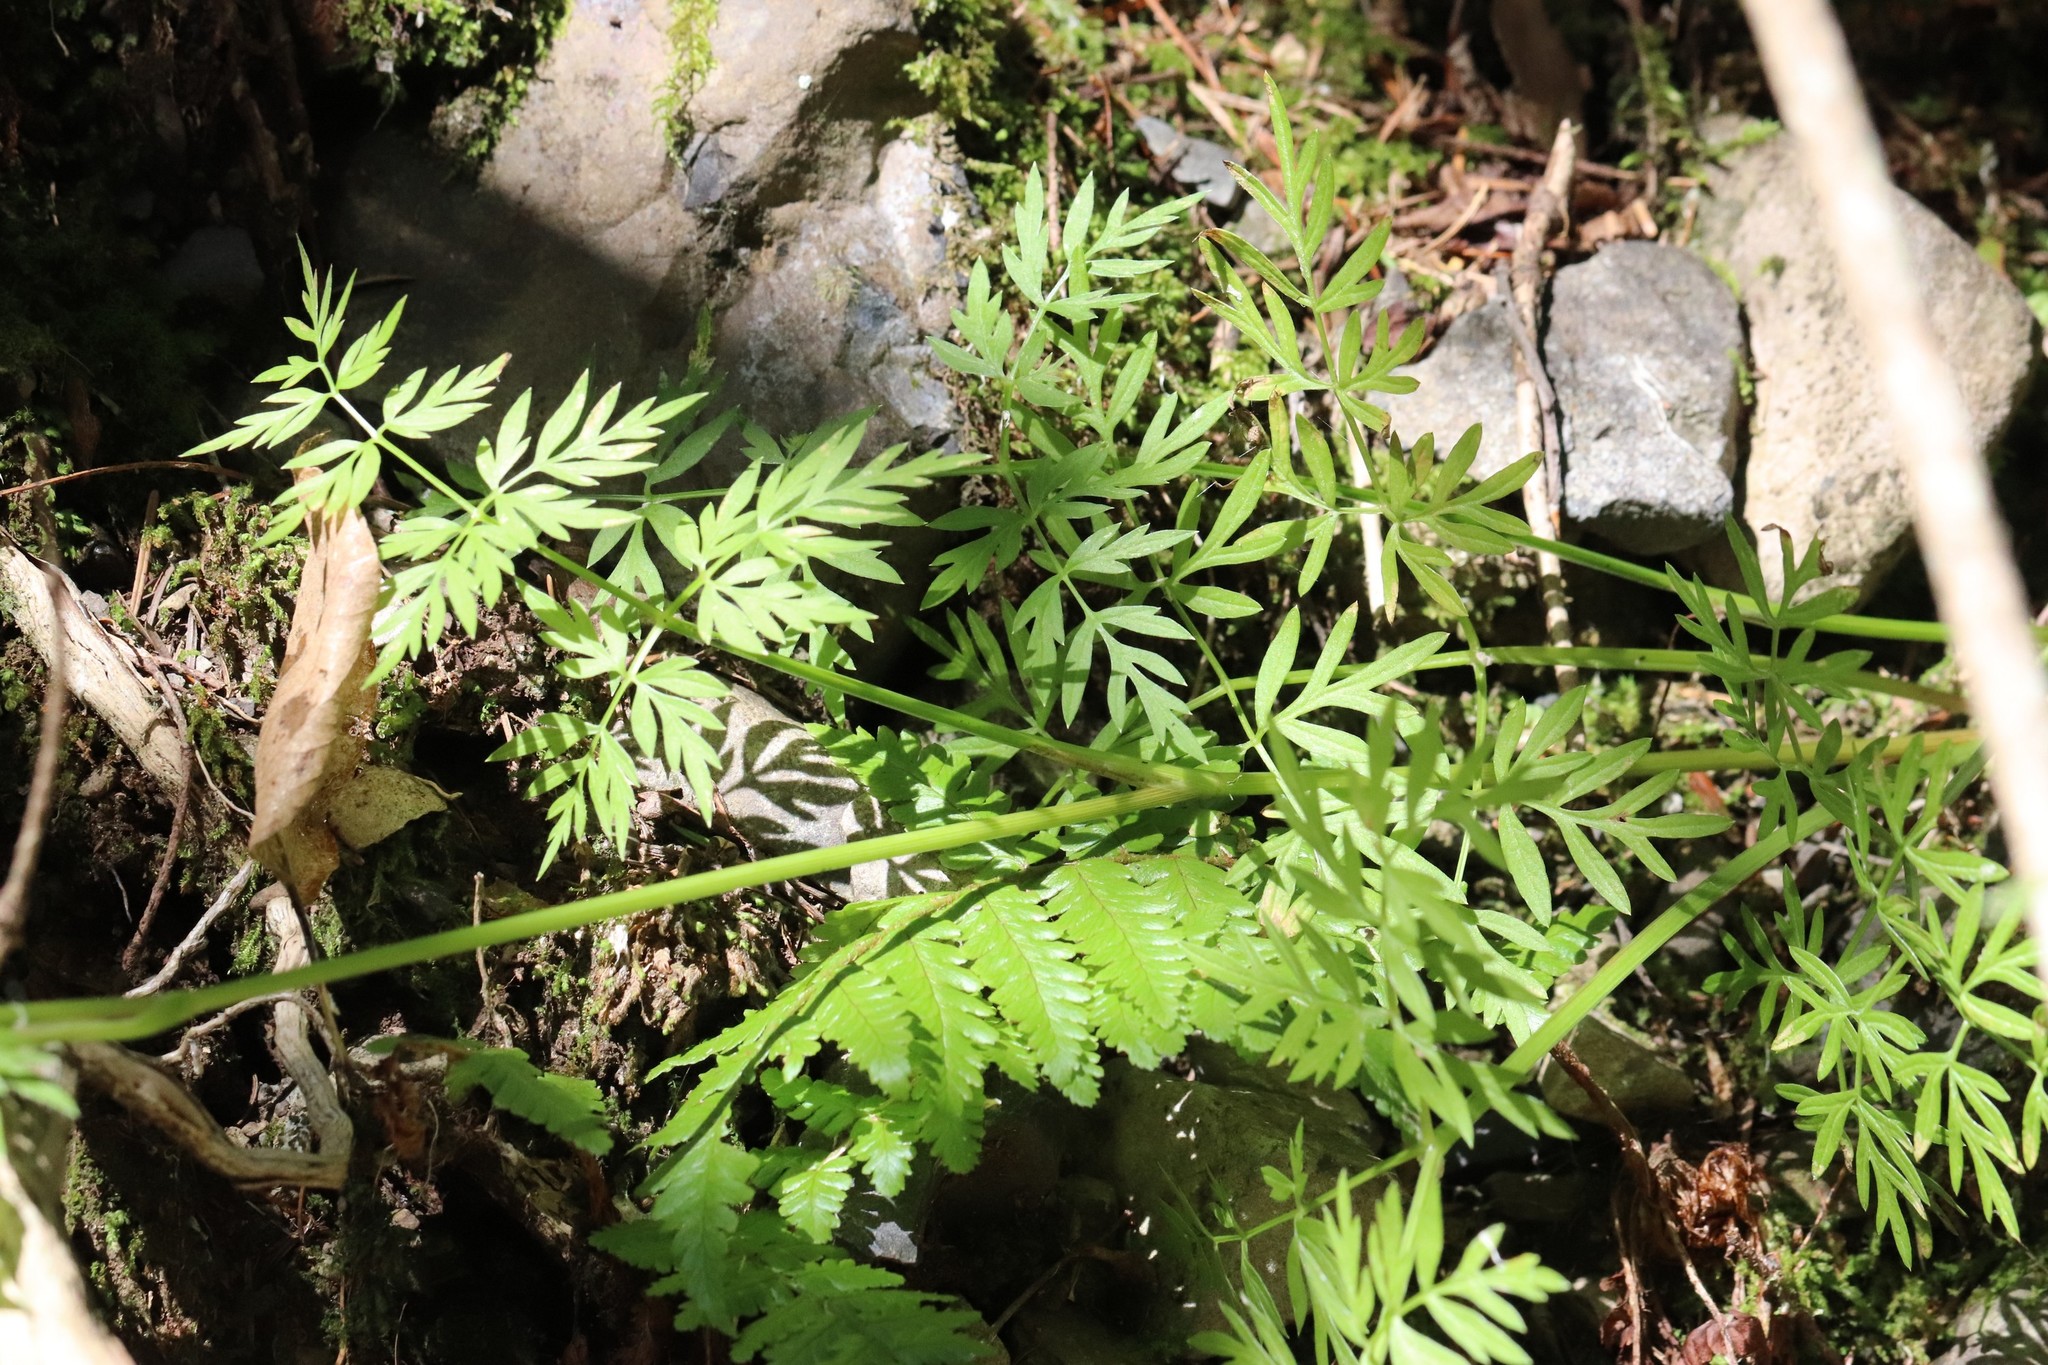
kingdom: Plantae
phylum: Tracheophyta
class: Magnoliopsida
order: Apiales
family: Apiaceae
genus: Ostericum
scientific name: Ostericum maximowiczii
